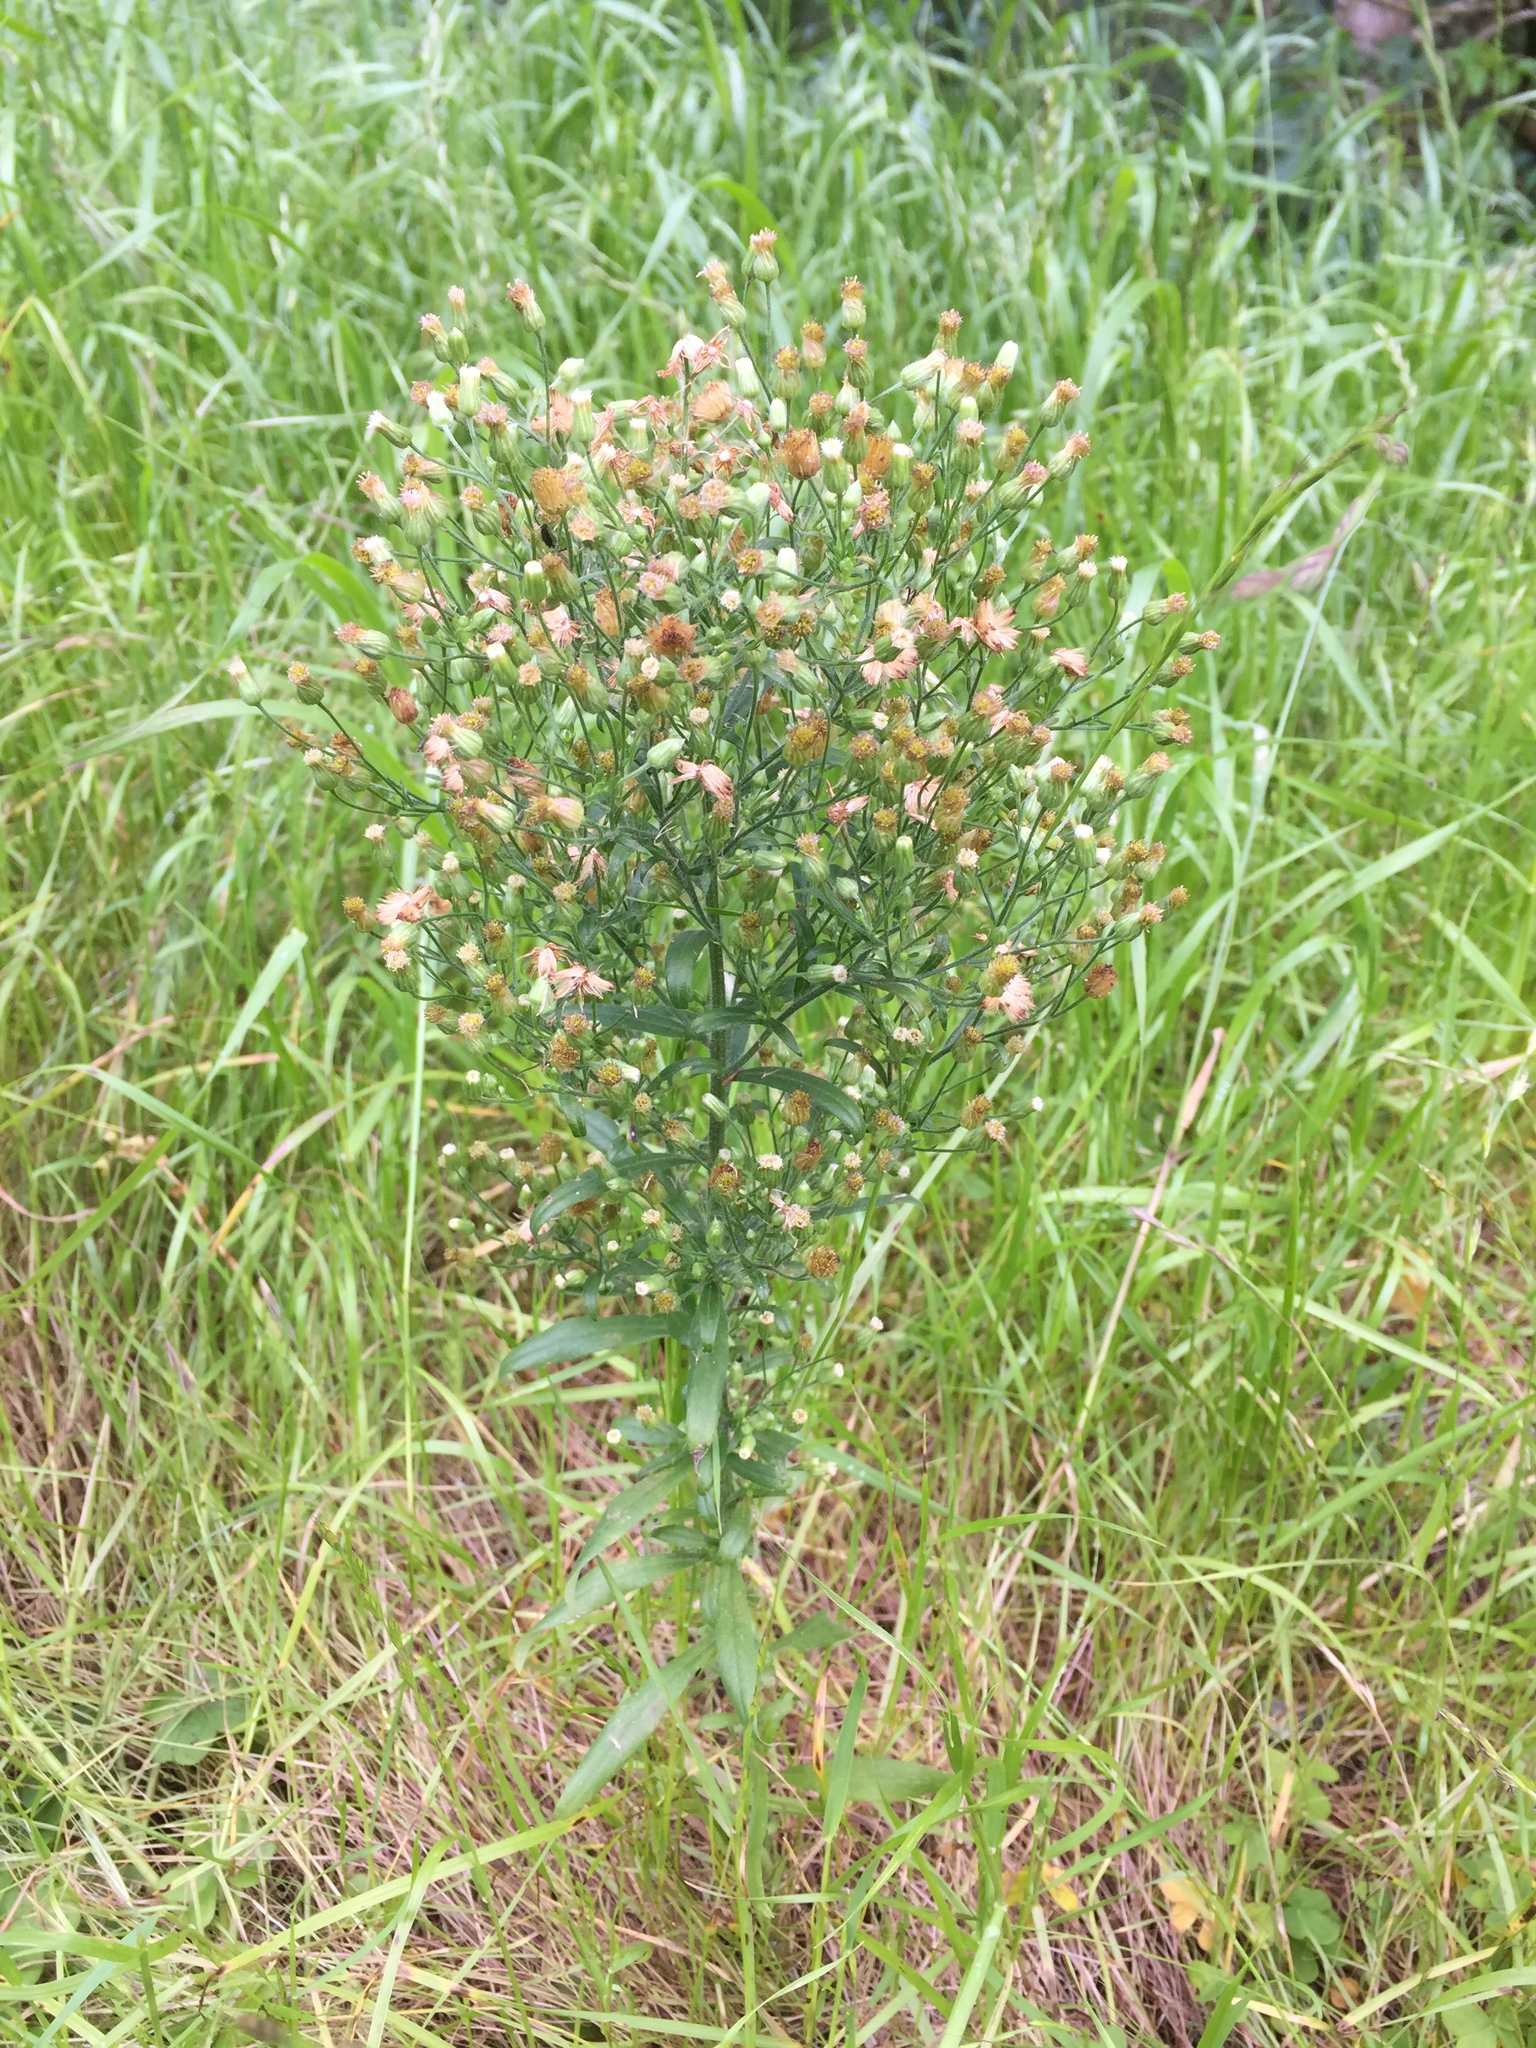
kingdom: Plantae
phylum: Tracheophyta
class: Magnoliopsida
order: Asterales
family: Asteraceae
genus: Erigeron
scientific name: Erigeron canadensis
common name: Canadian fleabane
